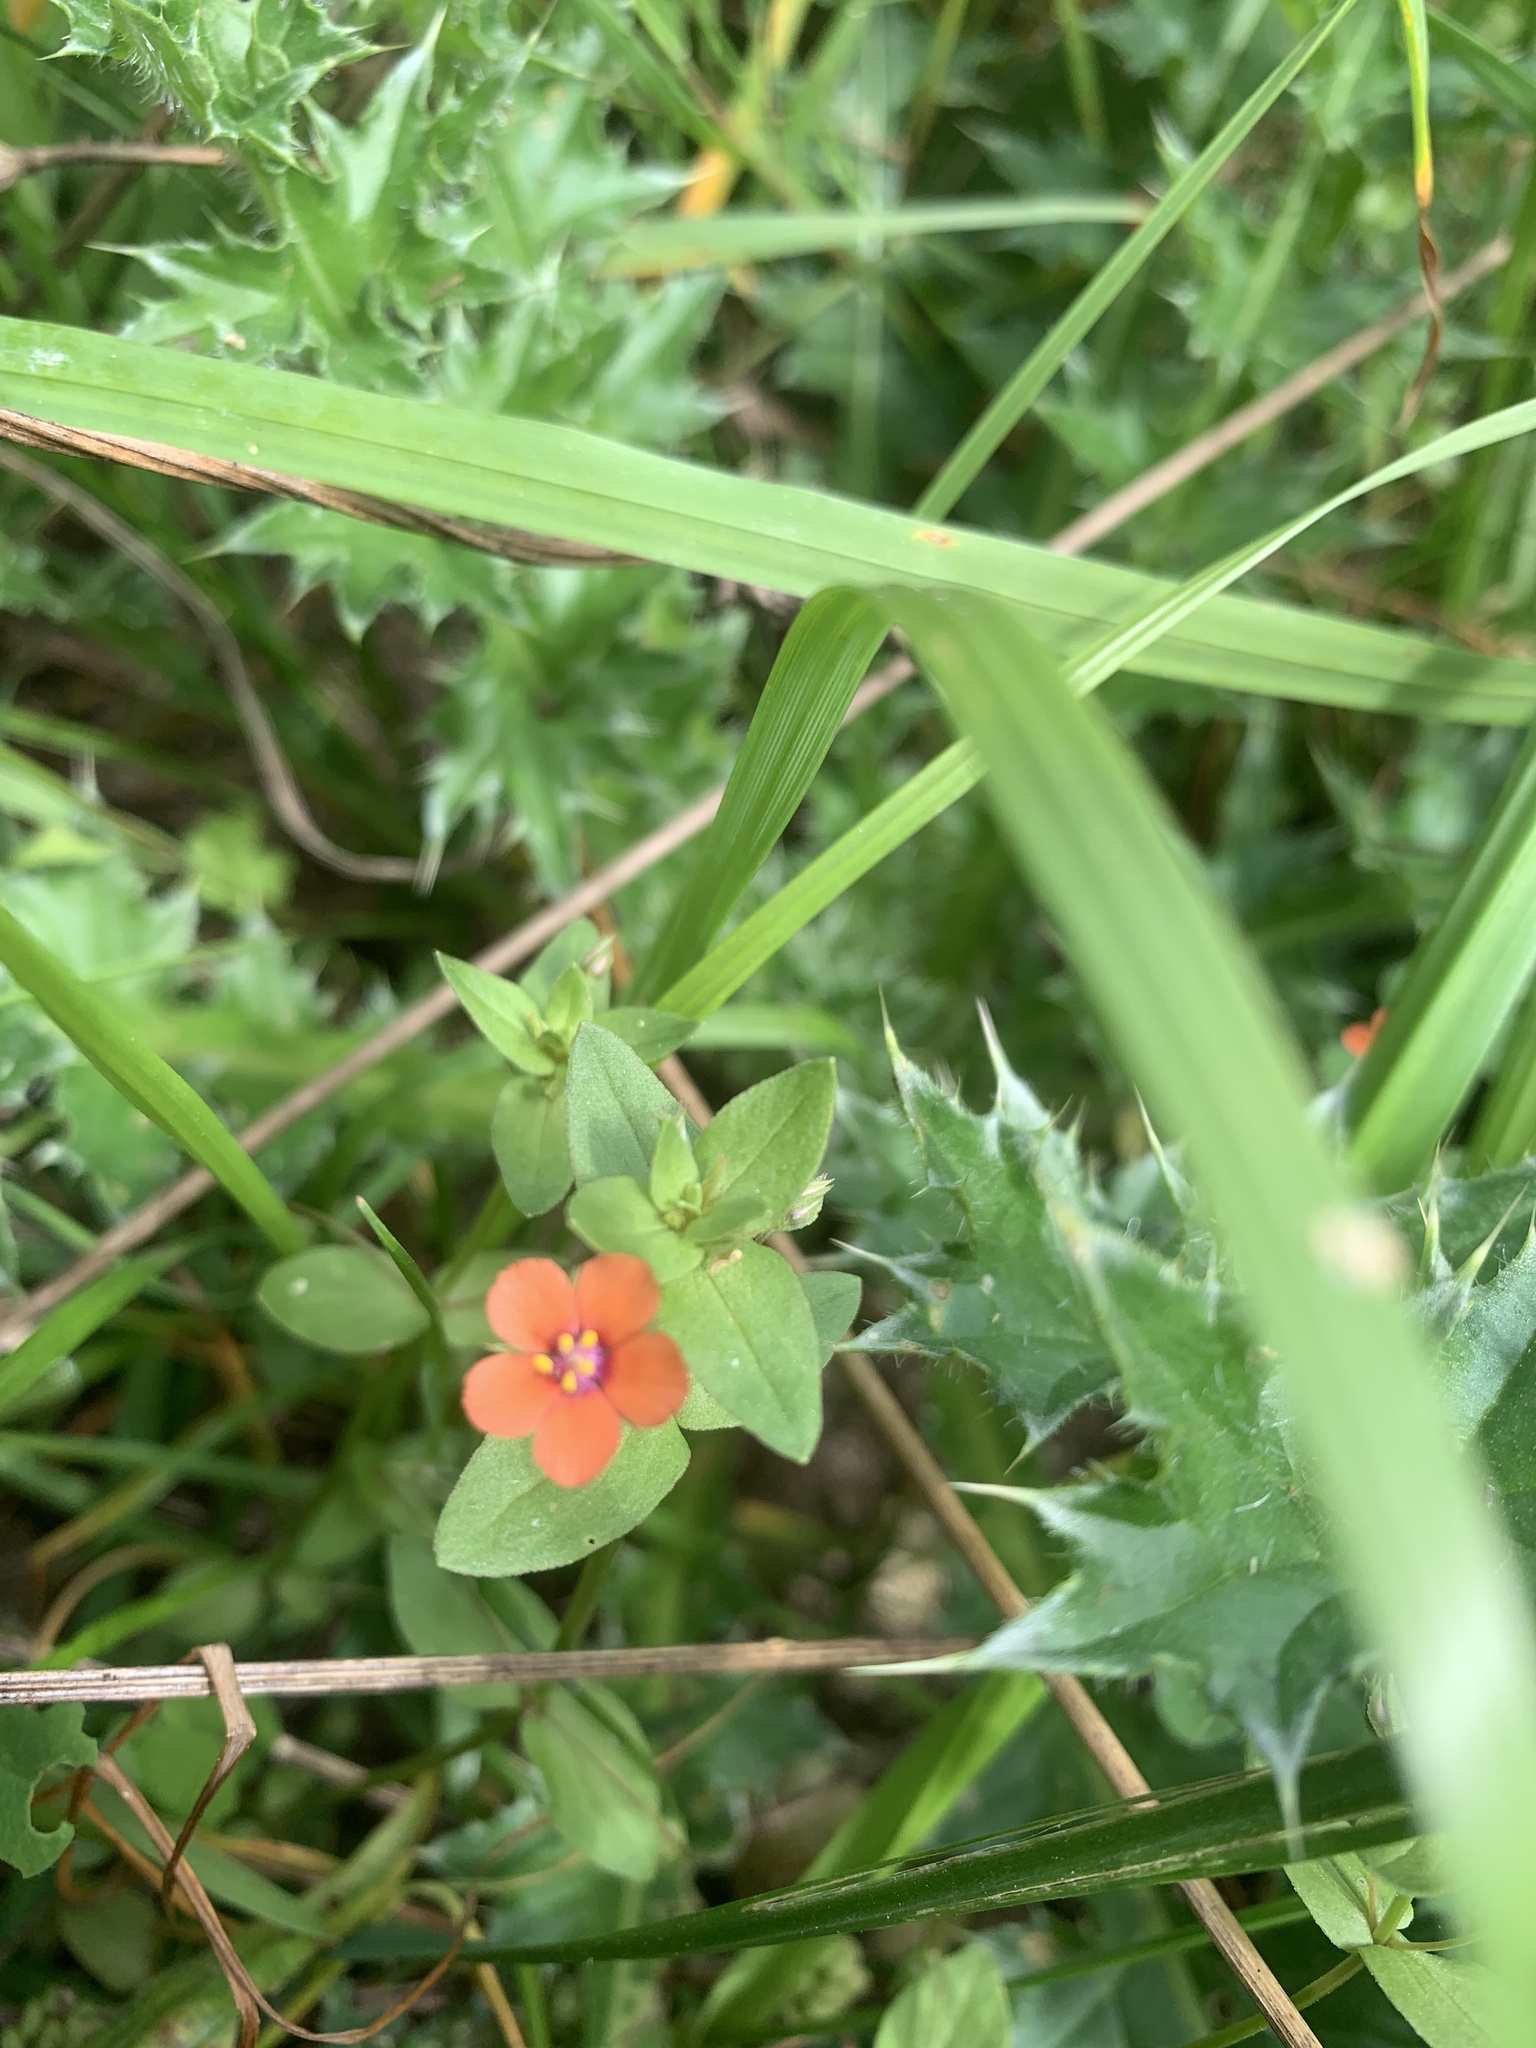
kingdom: Plantae
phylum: Tracheophyta
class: Magnoliopsida
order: Ericales
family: Primulaceae
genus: Lysimachia
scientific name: Lysimachia arvensis
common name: Scarlet pimpernel
